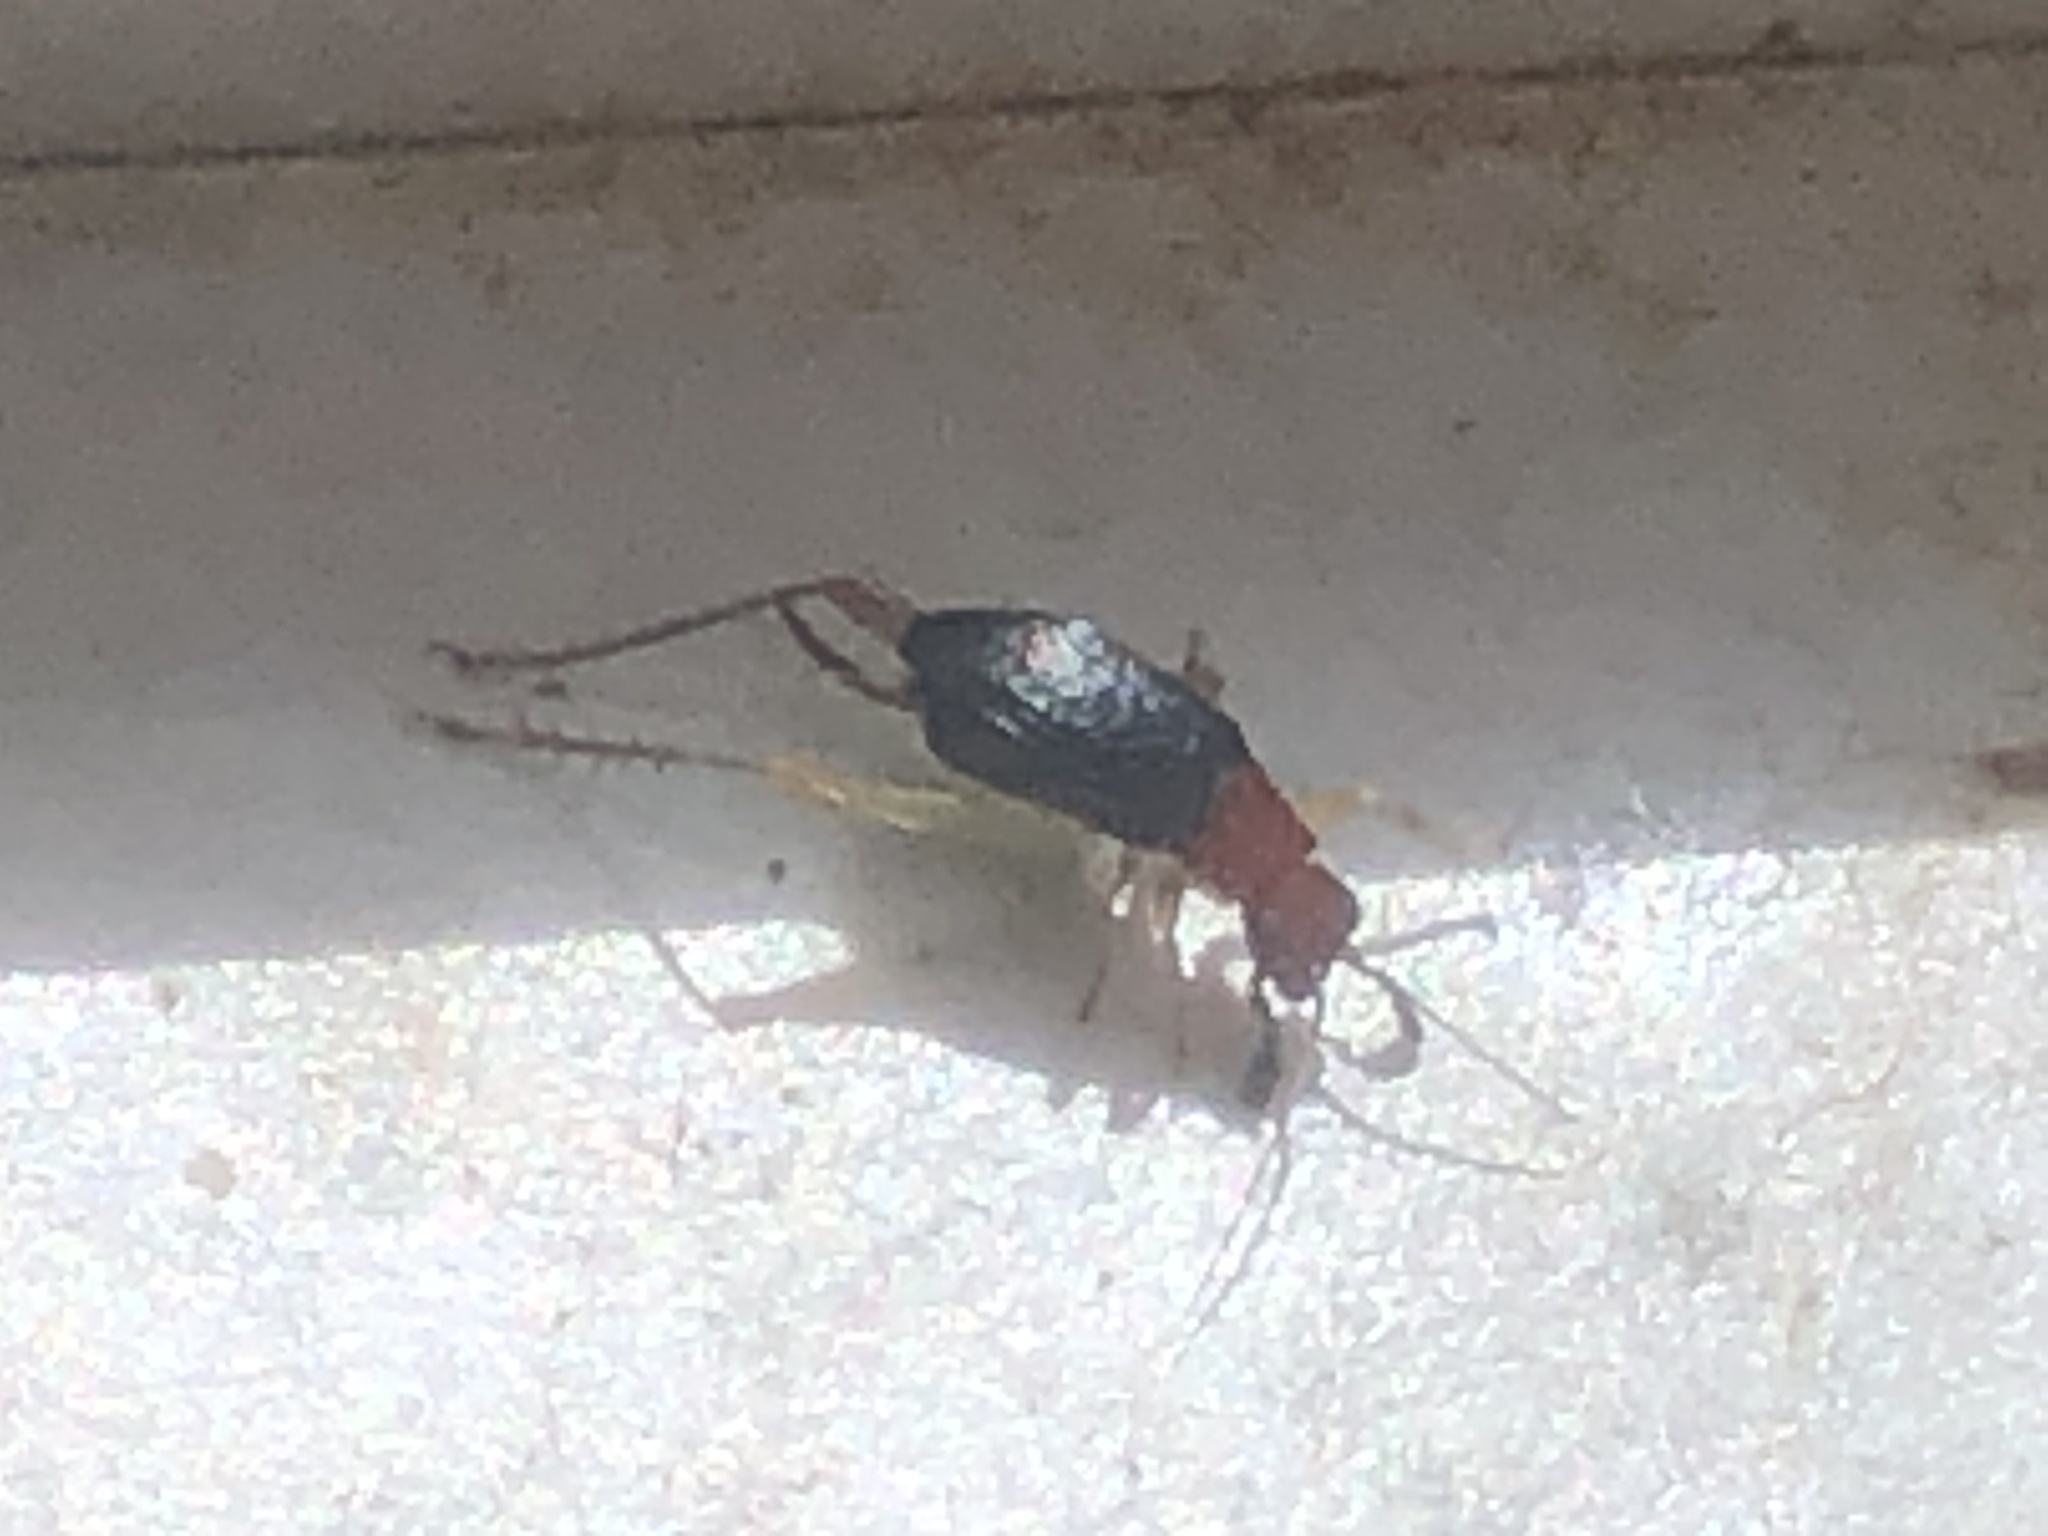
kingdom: Animalia
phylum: Arthropoda
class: Insecta
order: Orthoptera
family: Trigonidiidae
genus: Phyllopalpus
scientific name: Phyllopalpus pulchellus
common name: Handsome trig
